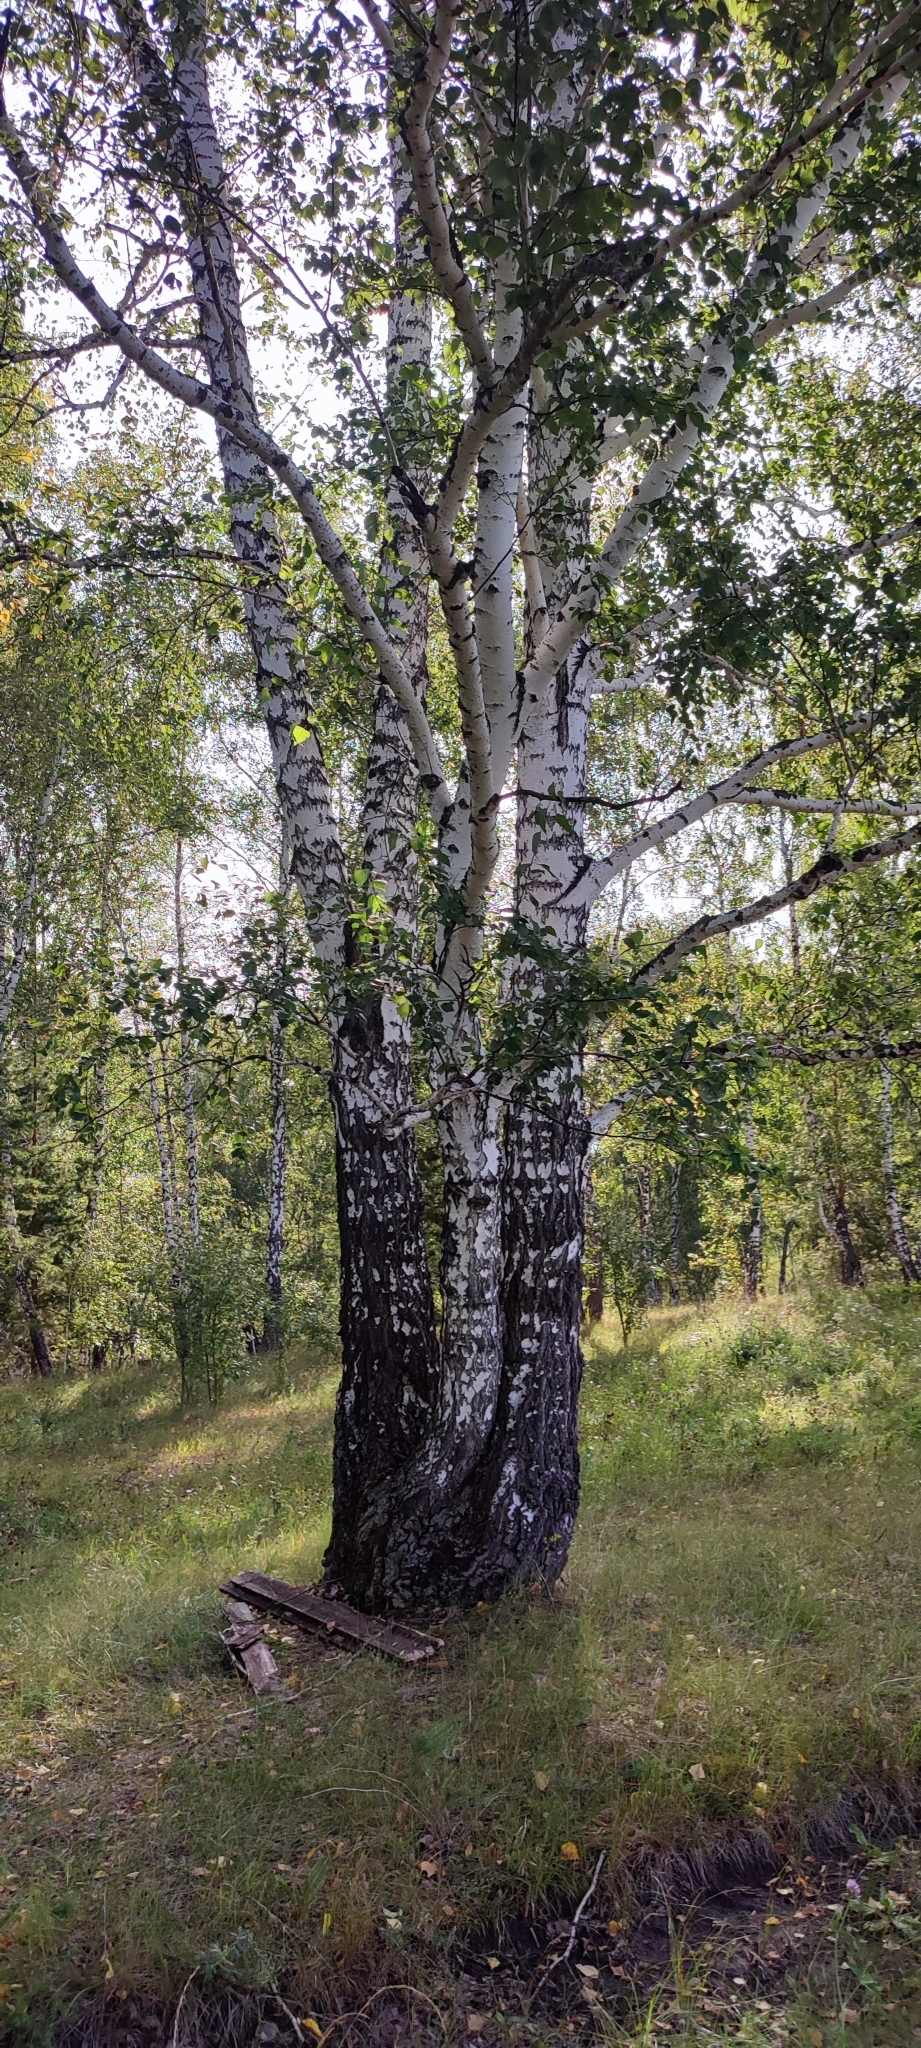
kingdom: Plantae
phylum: Tracheophyta
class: Magnoliopsida
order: Fagales
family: Betulaceae
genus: Betula
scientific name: Betula pendula
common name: Silver birch
